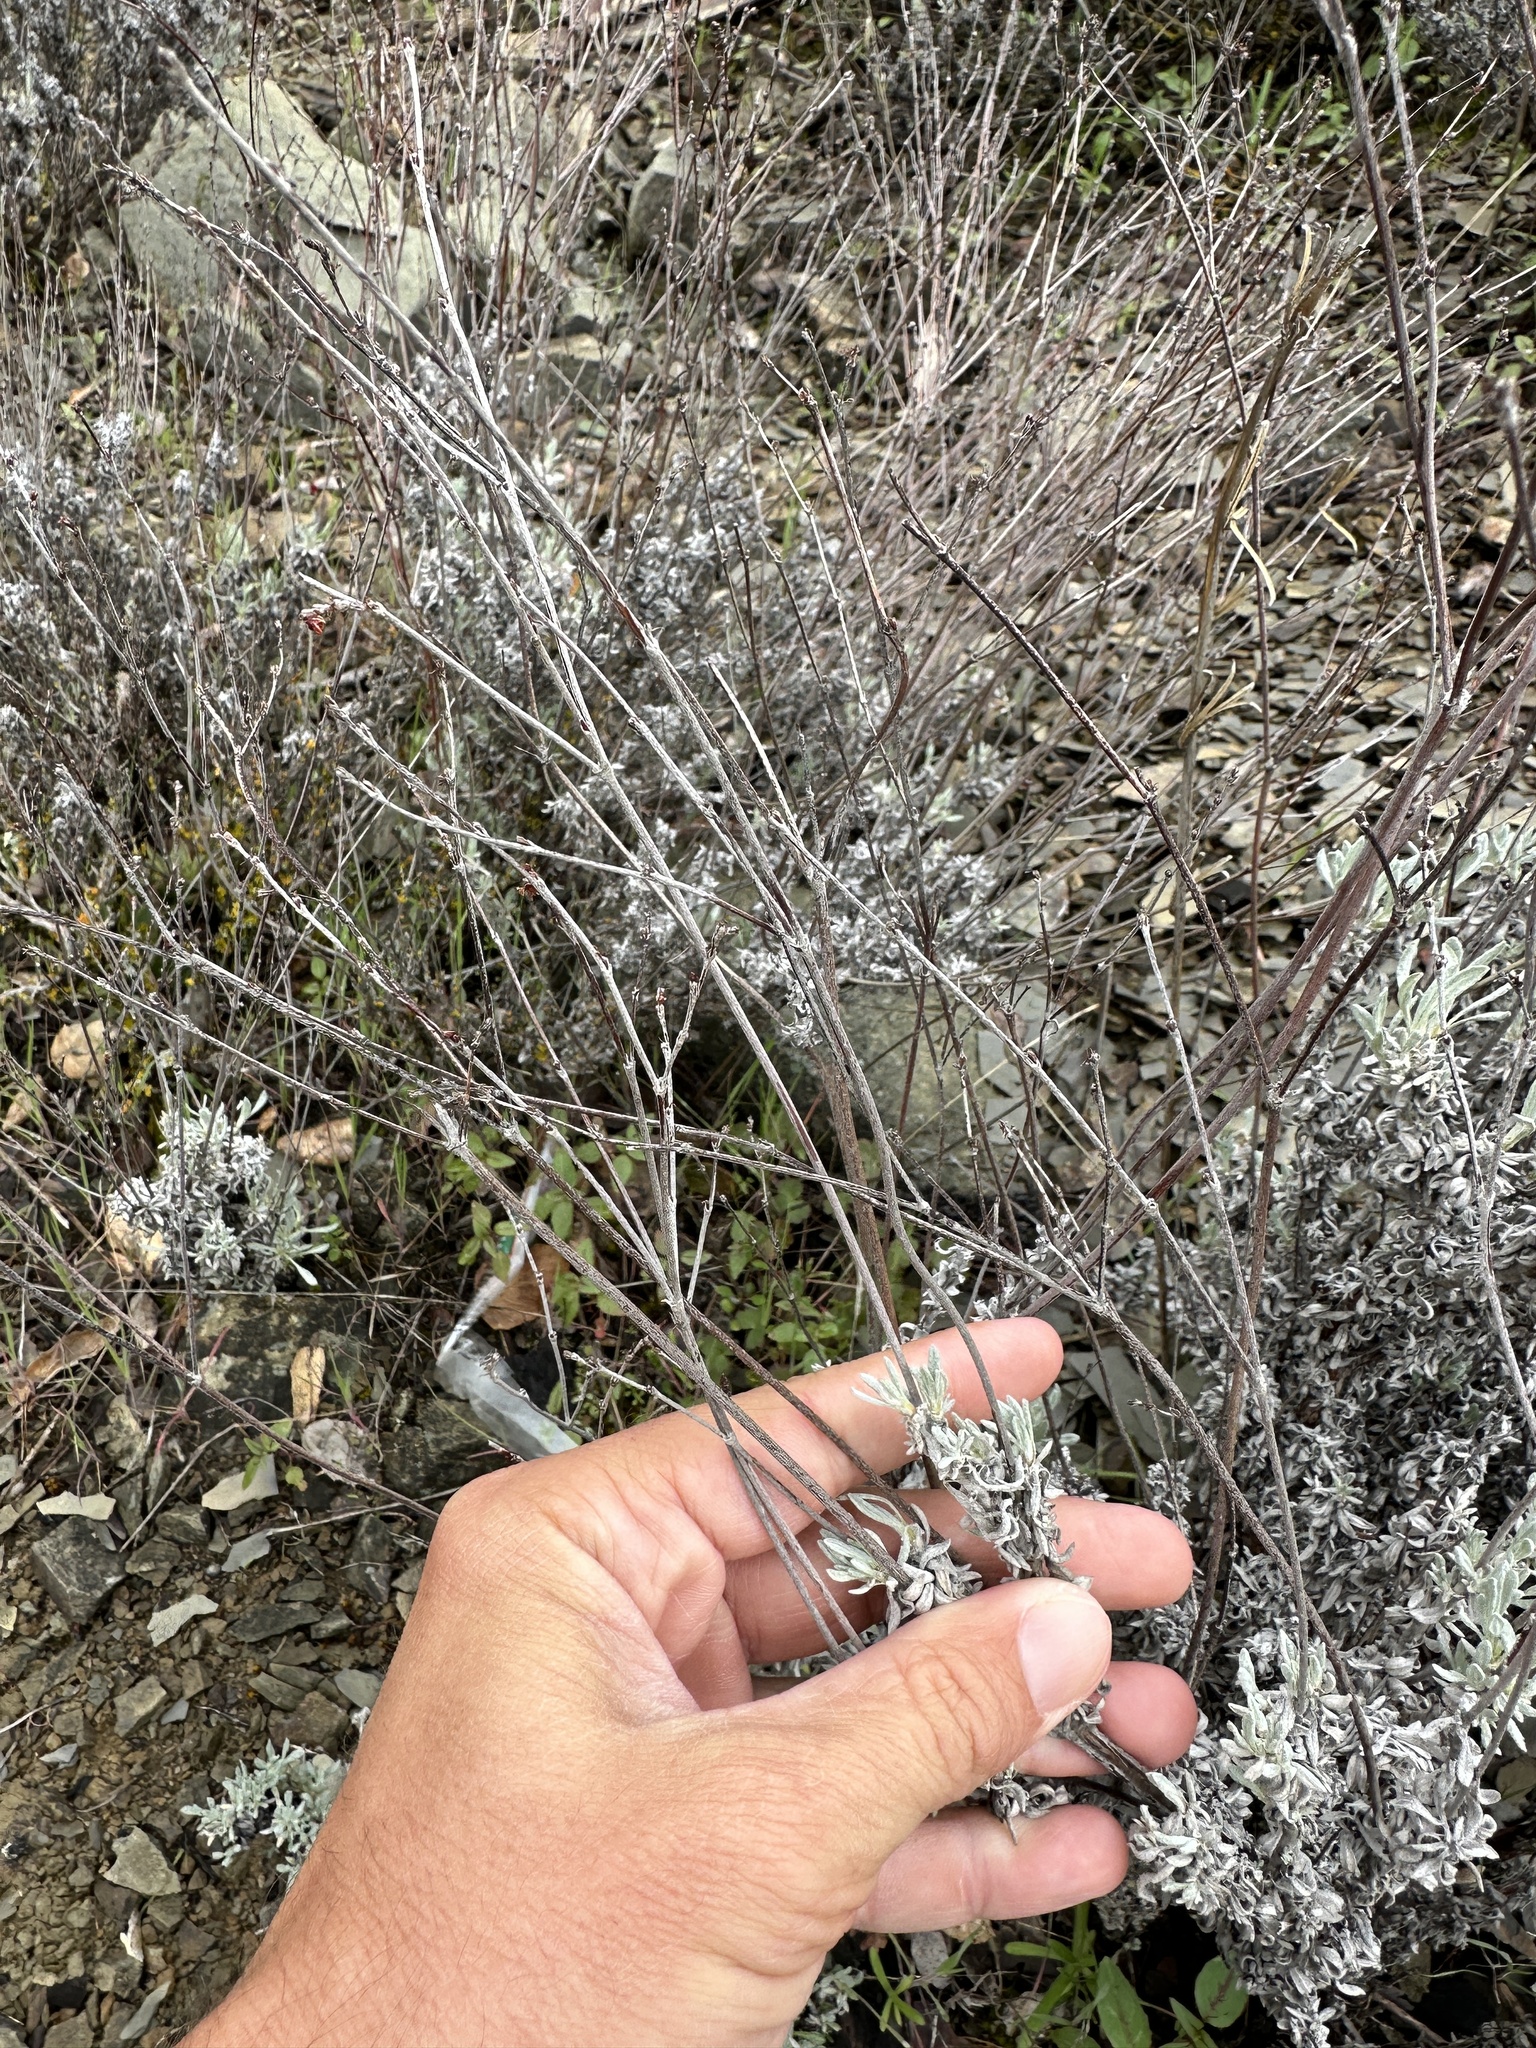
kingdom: Plantae
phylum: Tracheophyta
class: Magnoliopsida
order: Caryophyllales
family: Polygonaceae
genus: Eriogonum
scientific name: Eriogonum wrightii
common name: Bastard-sage
